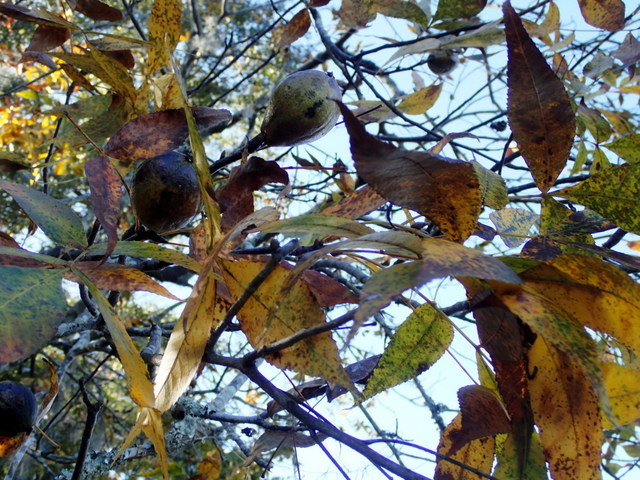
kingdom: Plantae
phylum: Tracheophyta
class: Magnoliopsida
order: Fagales
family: Juglandaceae
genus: Carya
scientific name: Carya glabra
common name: Pignut hickory
